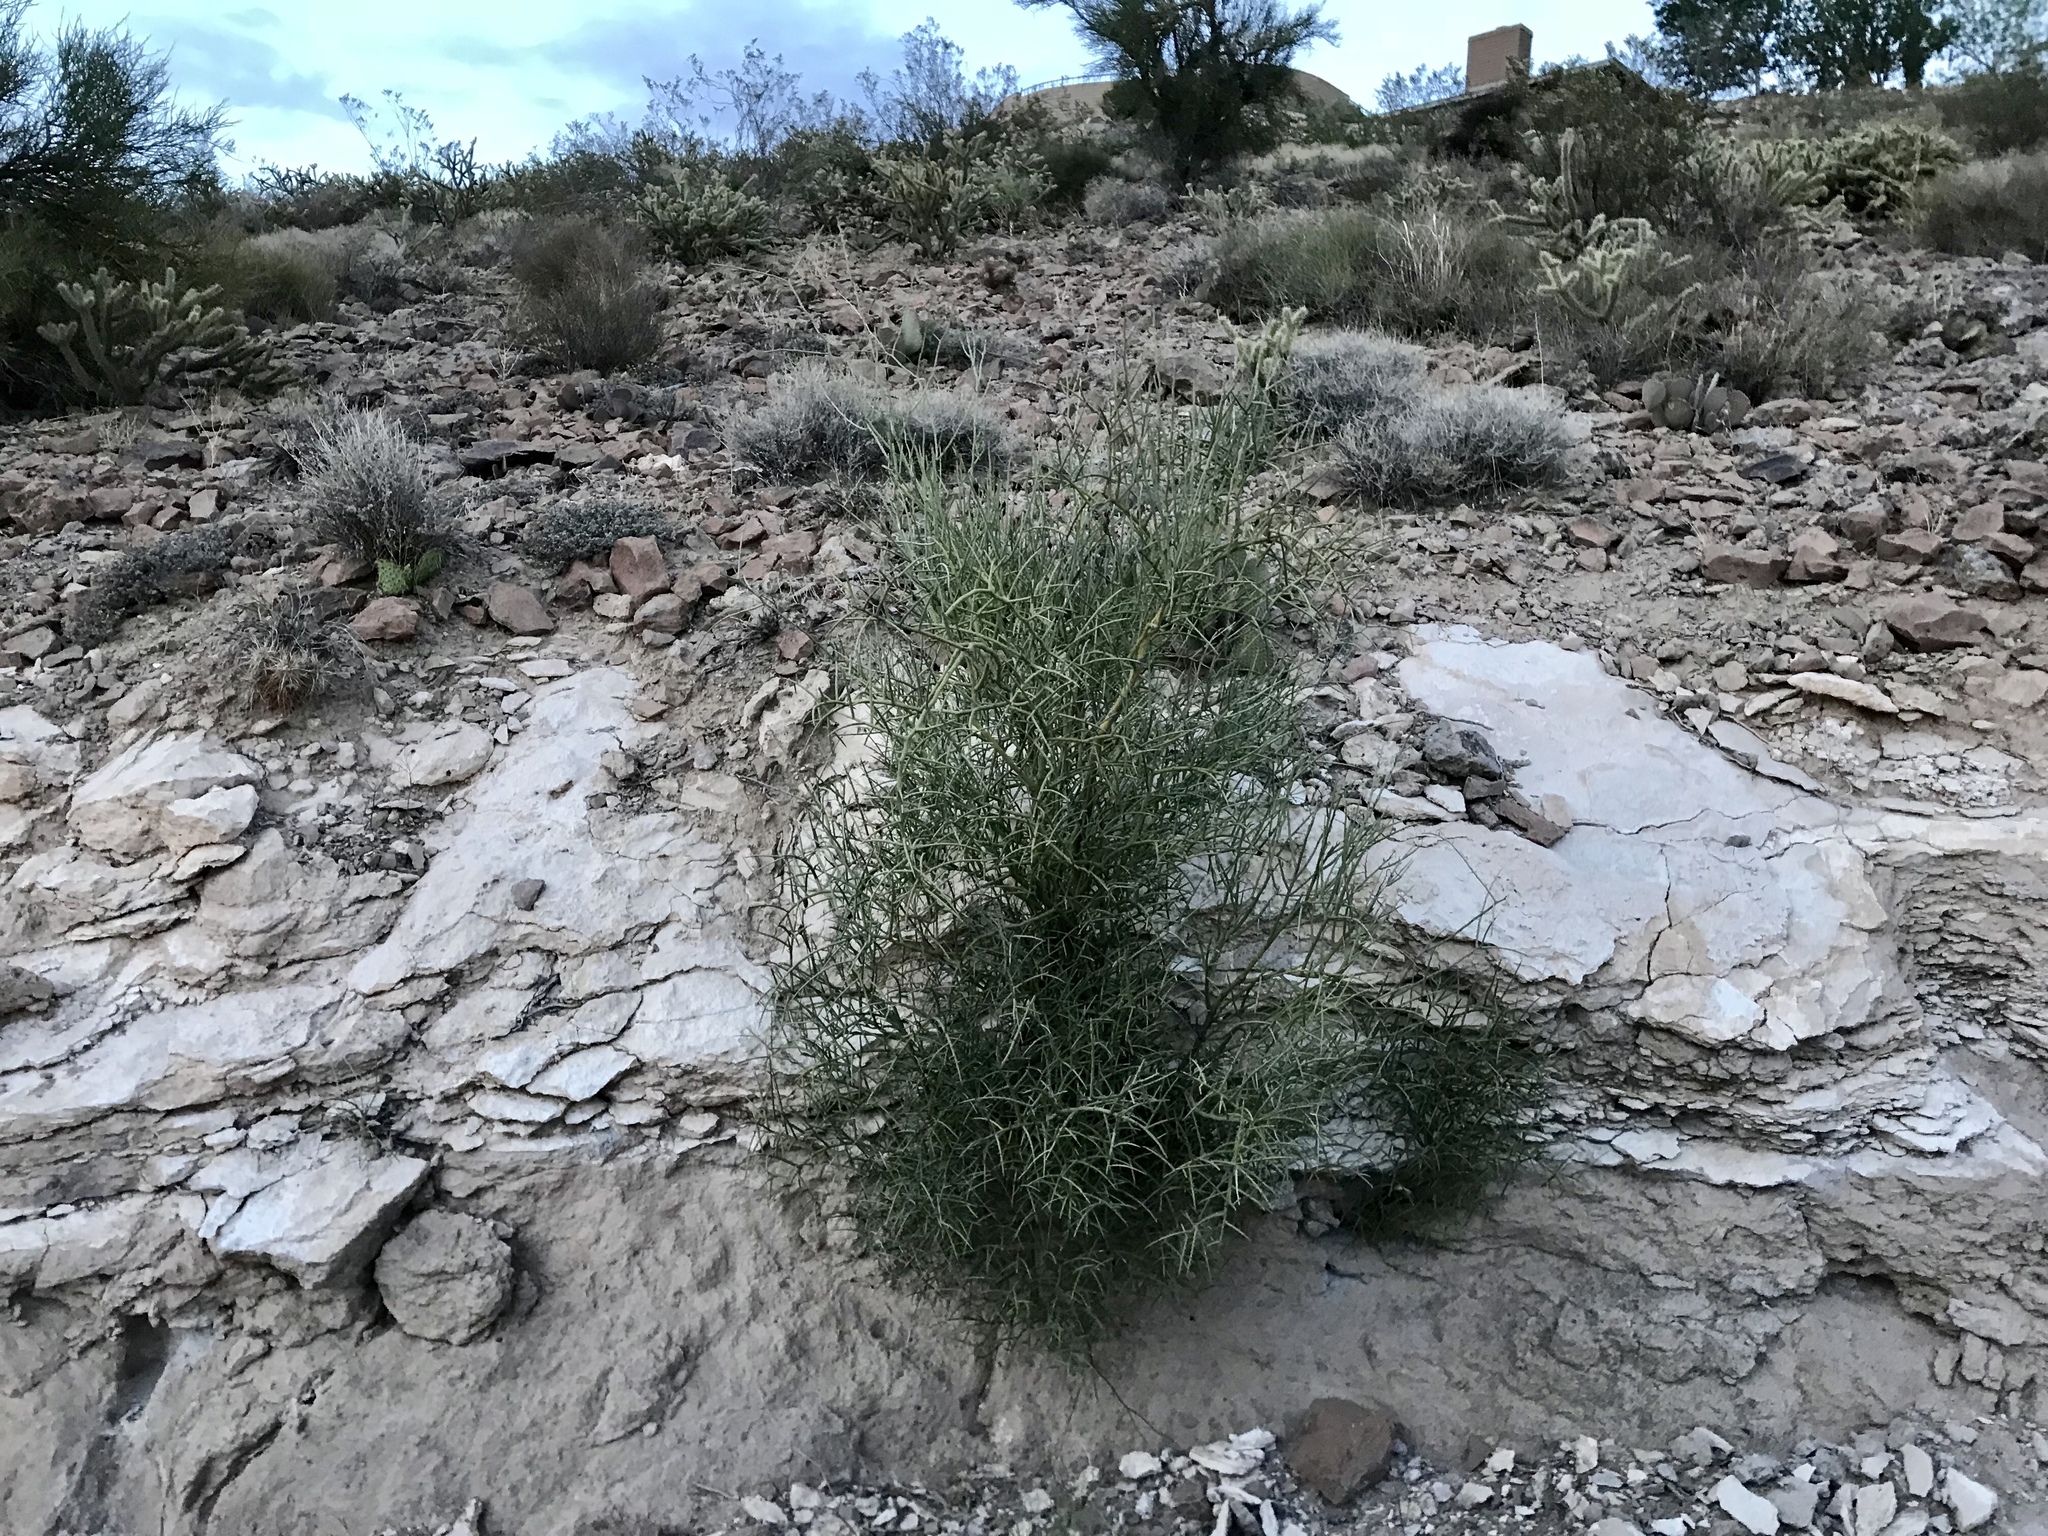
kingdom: Plantae
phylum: Tracheophyta
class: Magnoliopsida
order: Celastrales
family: Celastraceae
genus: Canotia
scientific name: Canotia holacantha
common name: Crucifixion thorns
